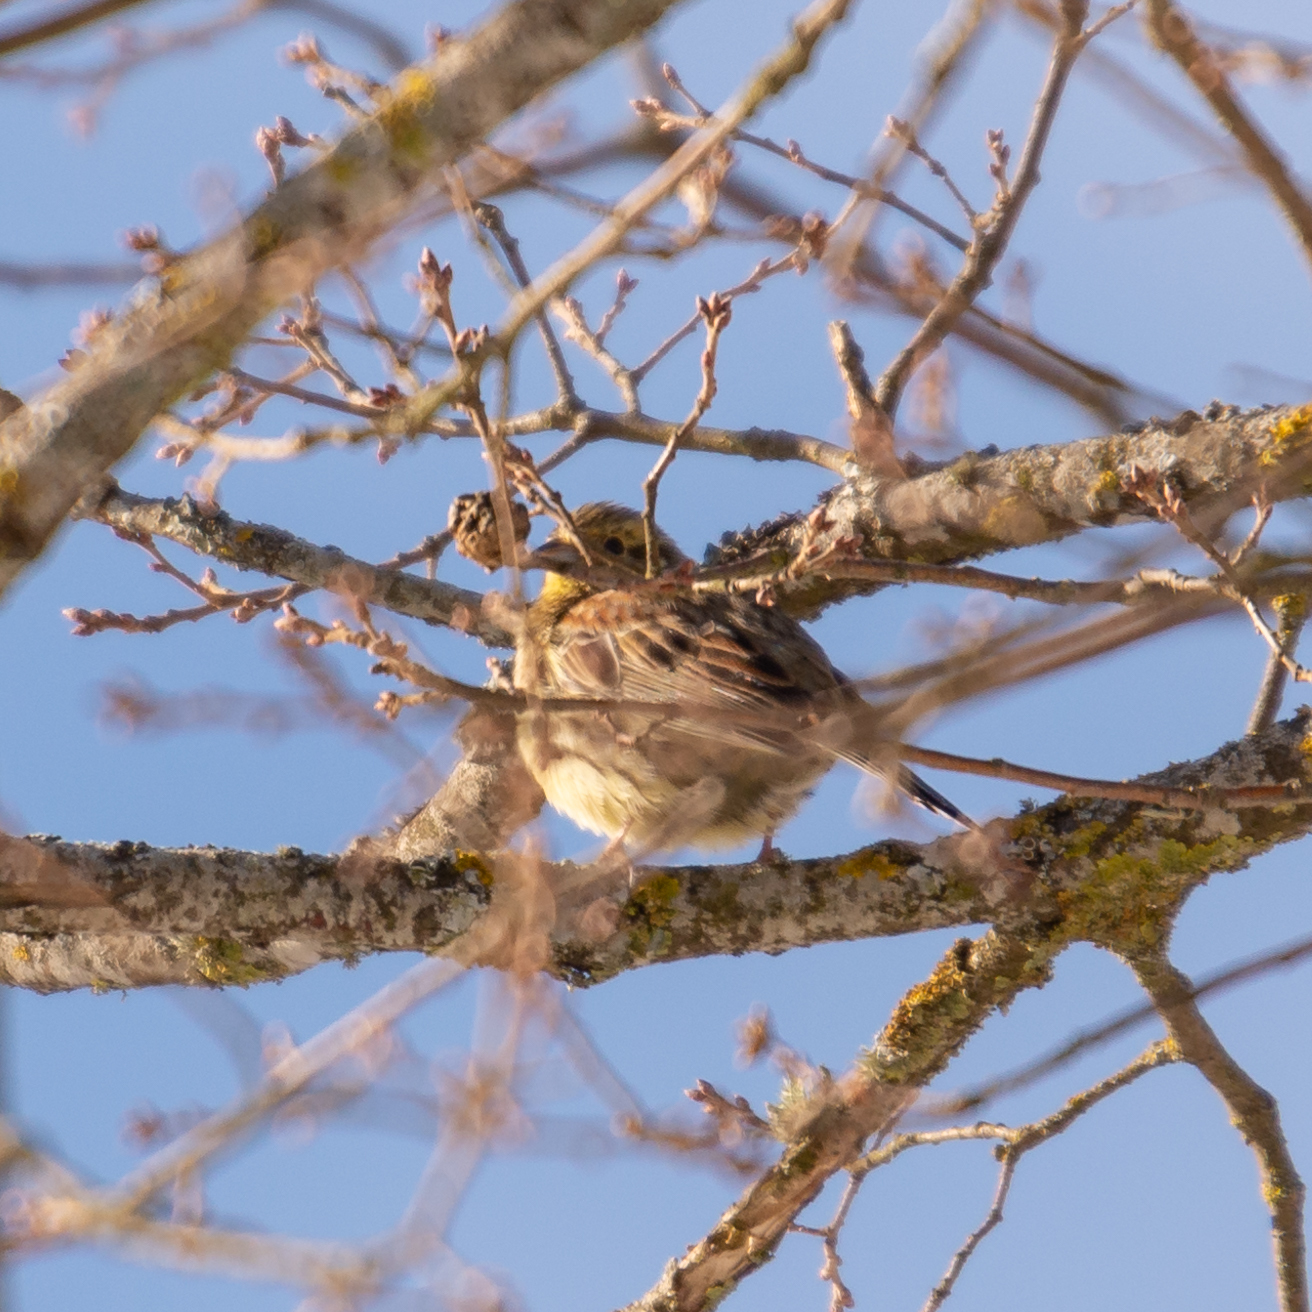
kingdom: Animalia
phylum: Chordata
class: Aves
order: Passeriformes
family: Emberizidae
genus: Emberiza
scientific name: Emberiza cirlus
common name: Cirl bunting
